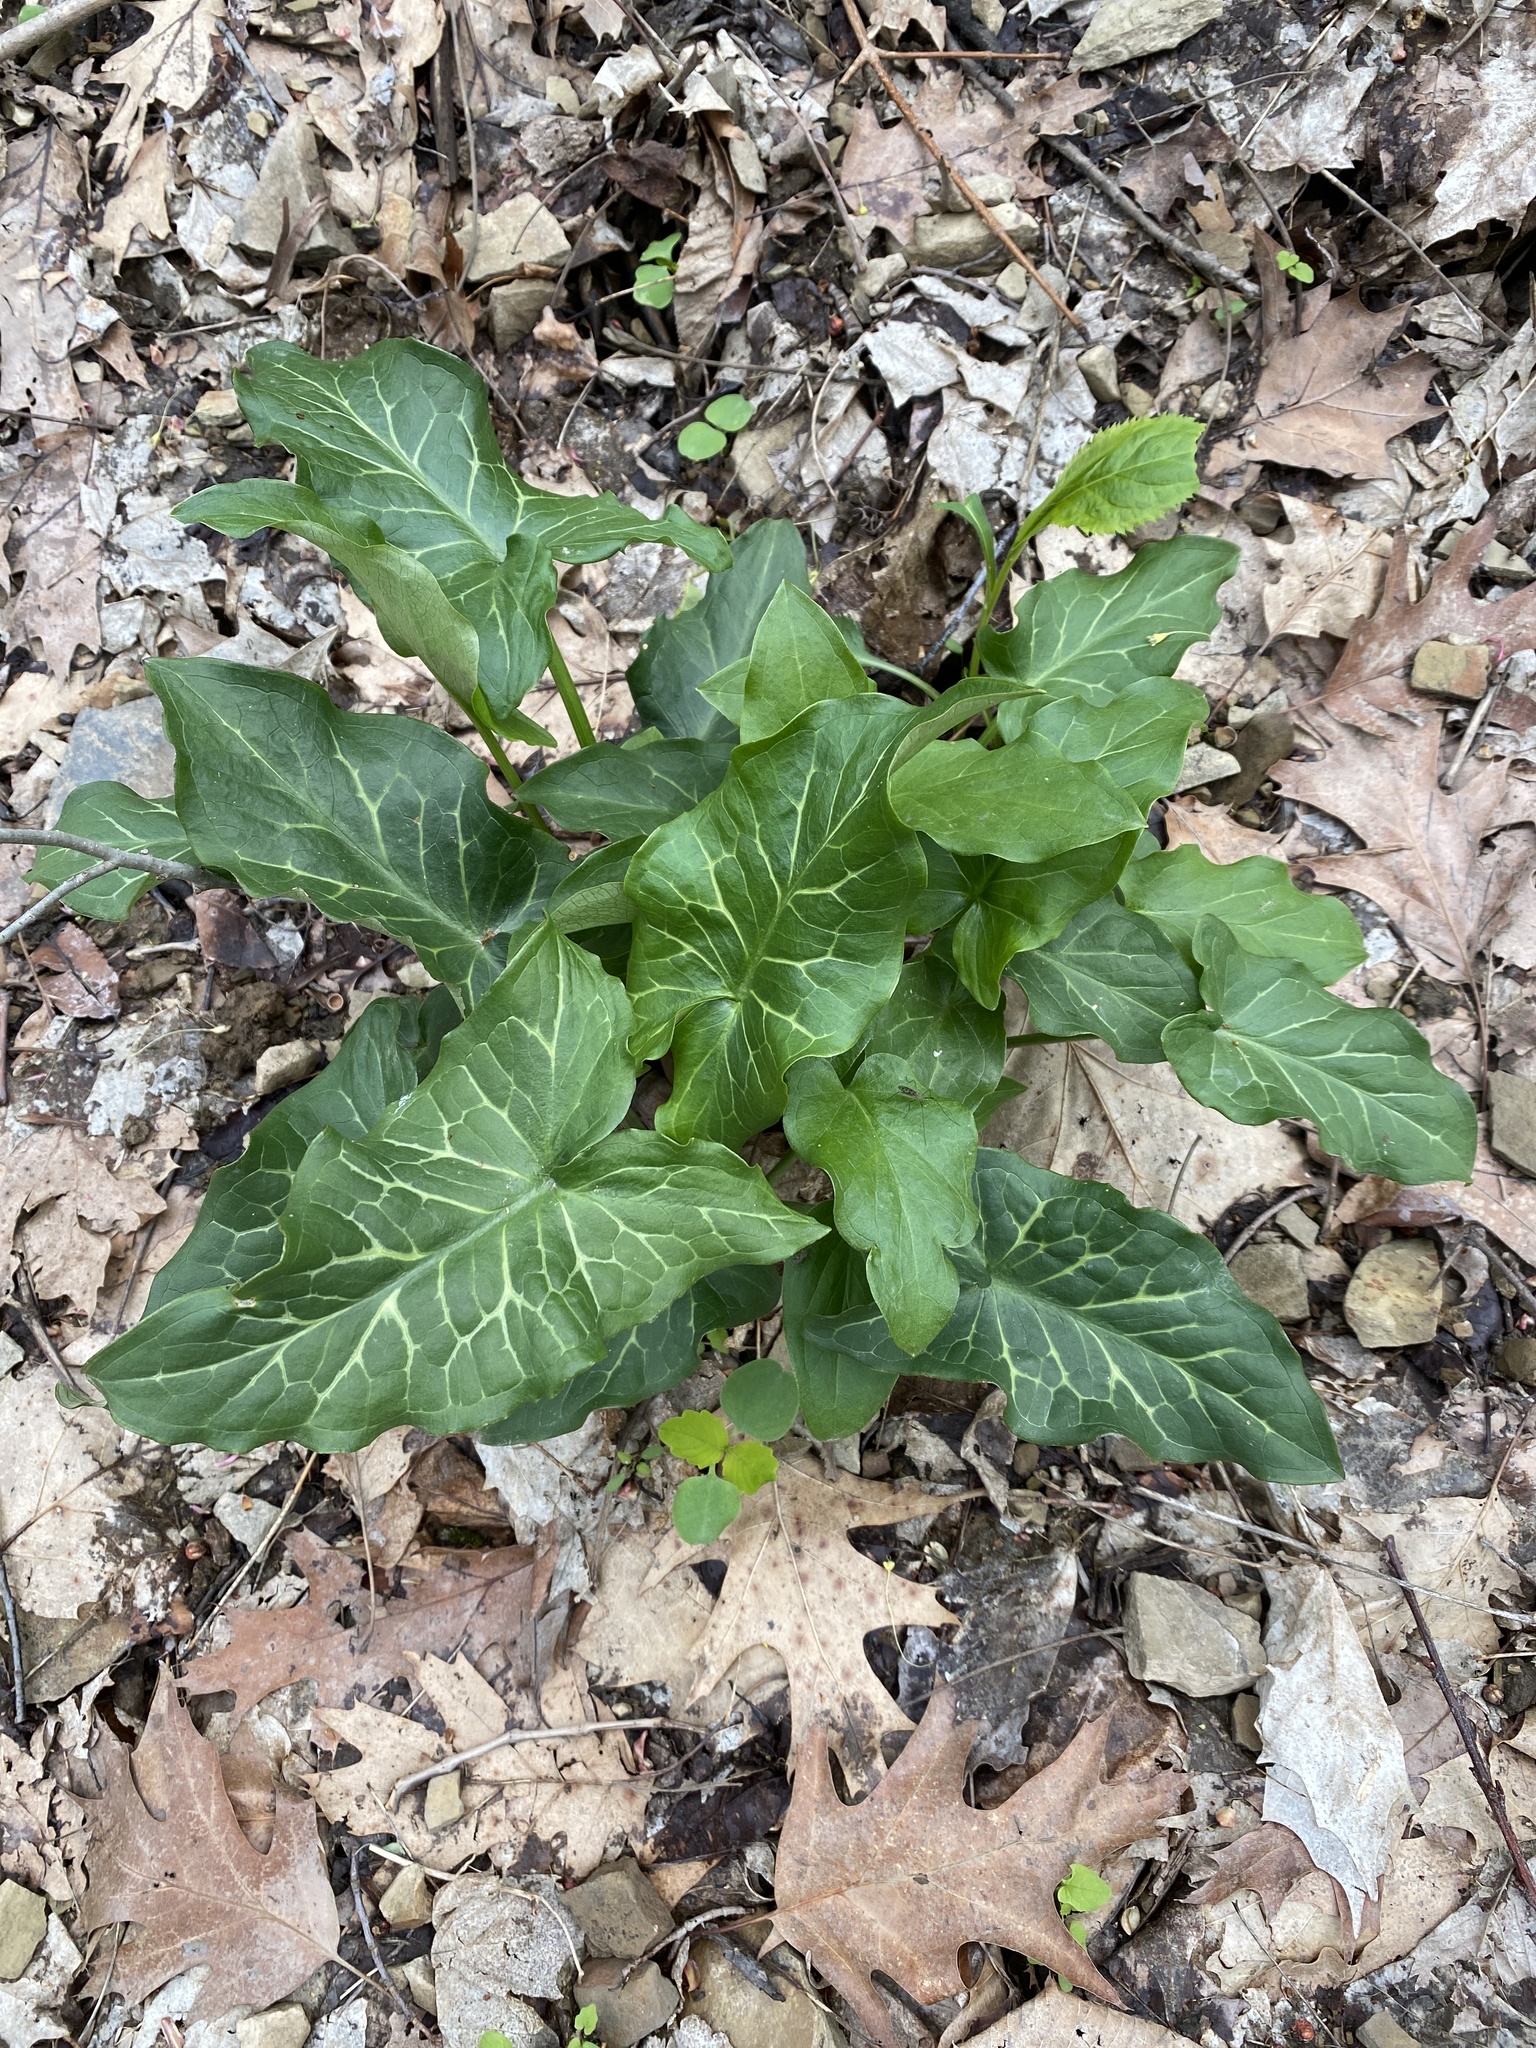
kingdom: Plantae
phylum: Tracheophyta
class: Liliopsida
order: Alismatales
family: Araceae
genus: Arum
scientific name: Arum italicum
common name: Italian lords-and-ladies
